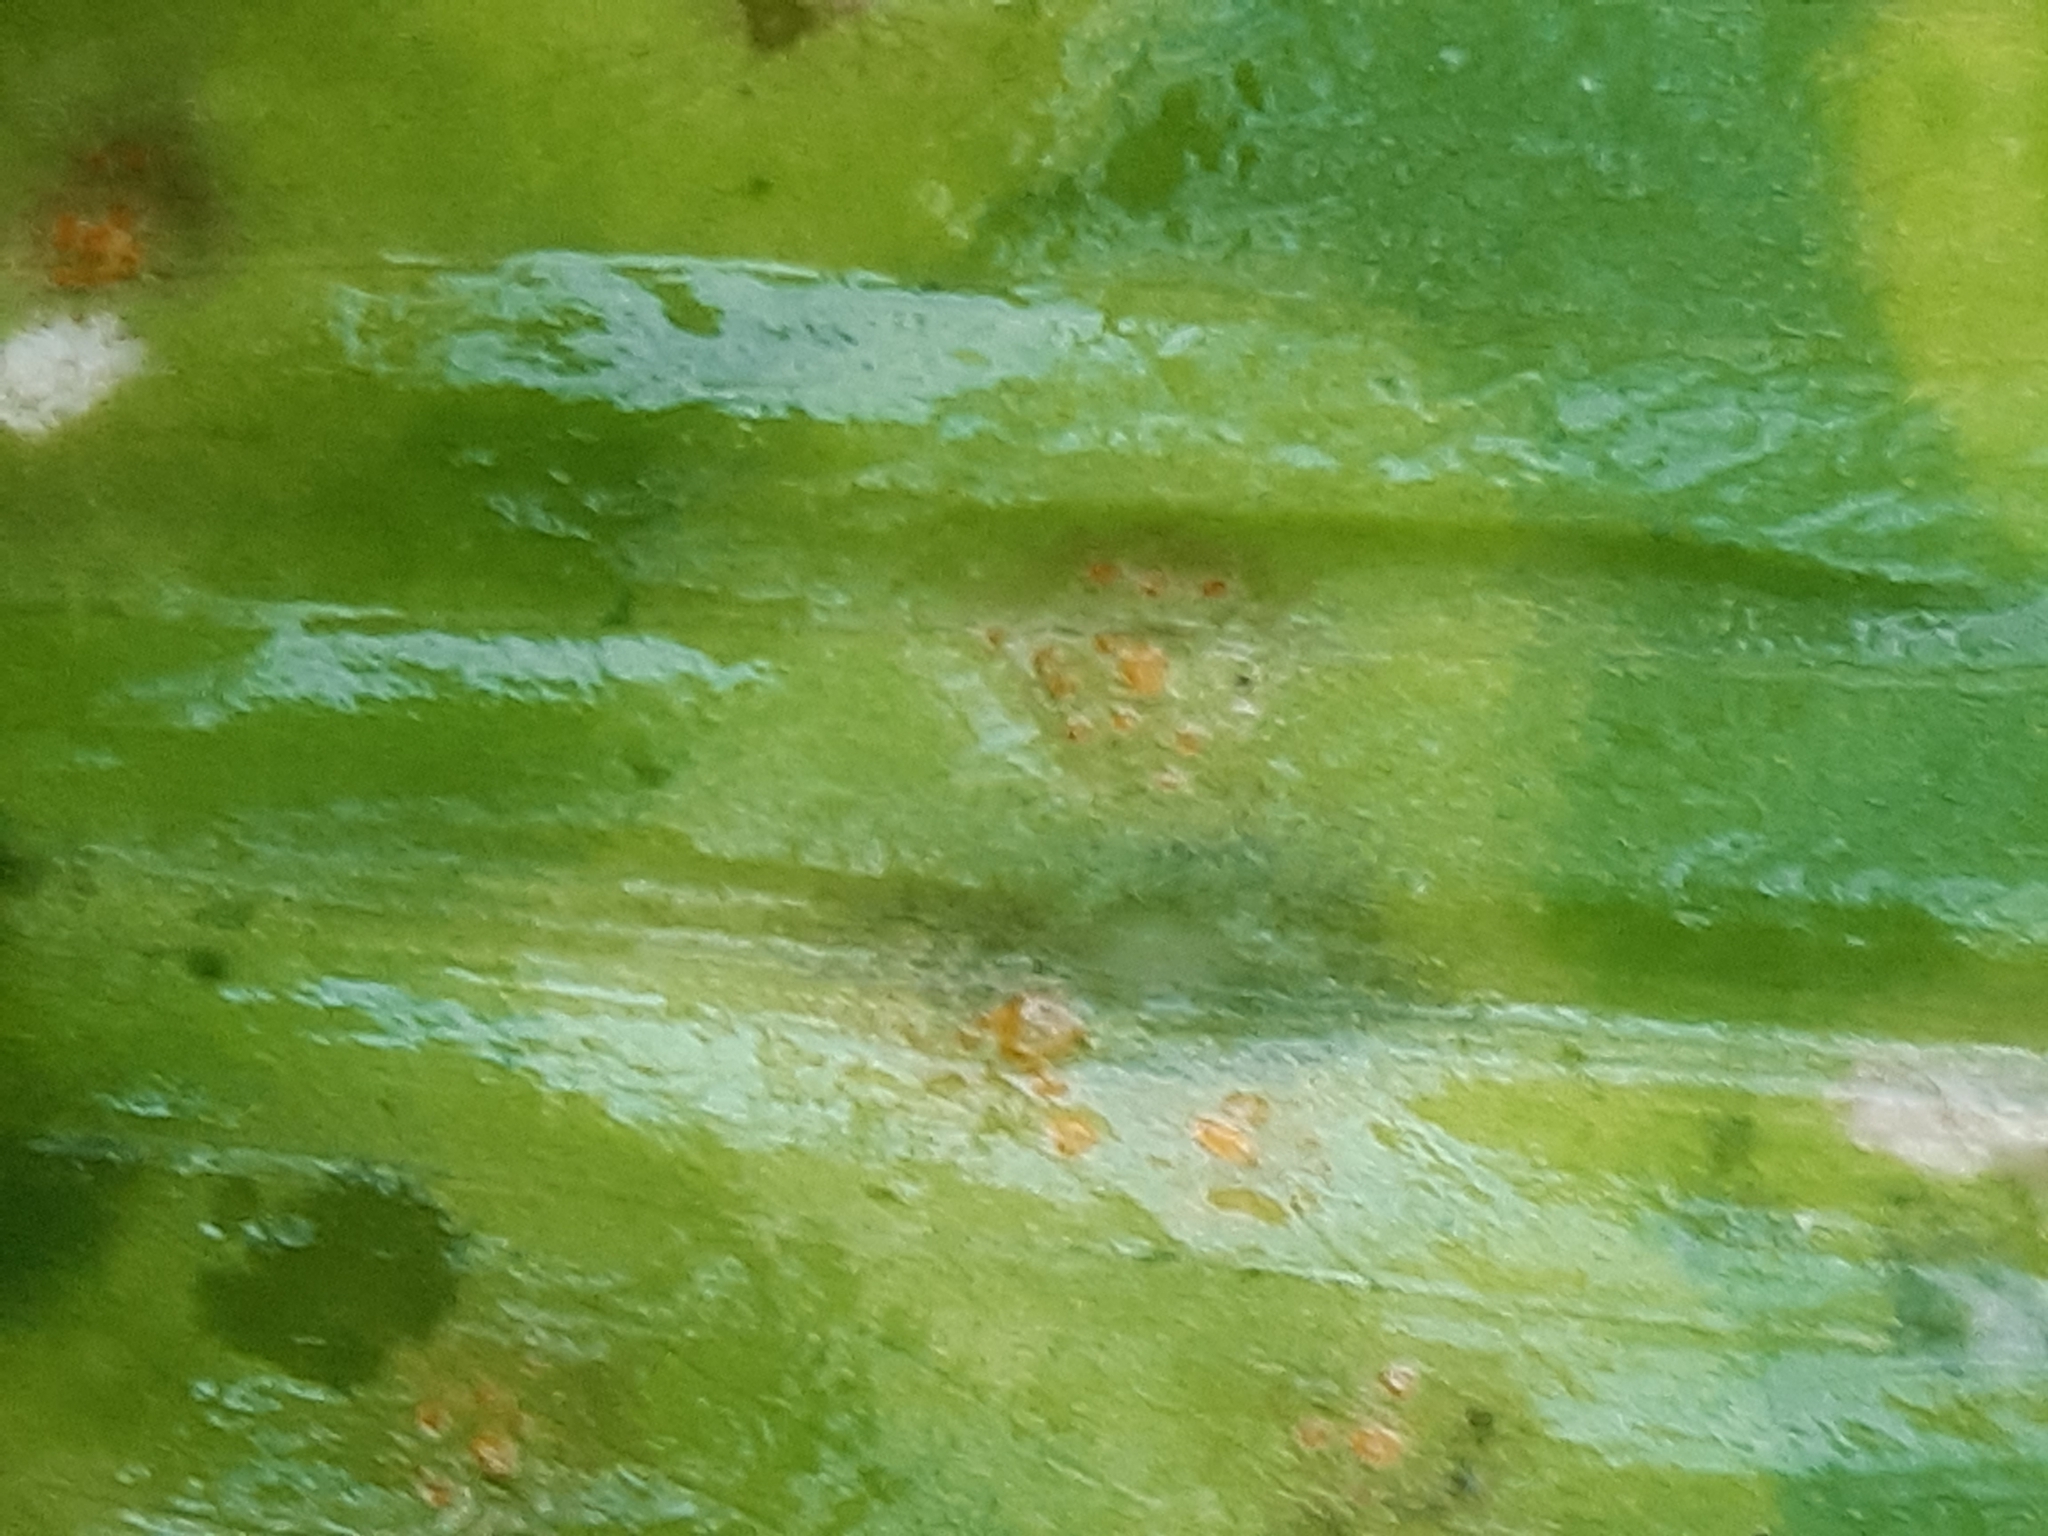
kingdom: Fungi
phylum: Basidiomycota
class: Pucciniomycetes
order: Pucciniales
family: Pucciniaceae
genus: Caeoma
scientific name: Caeoma allii-ursini
